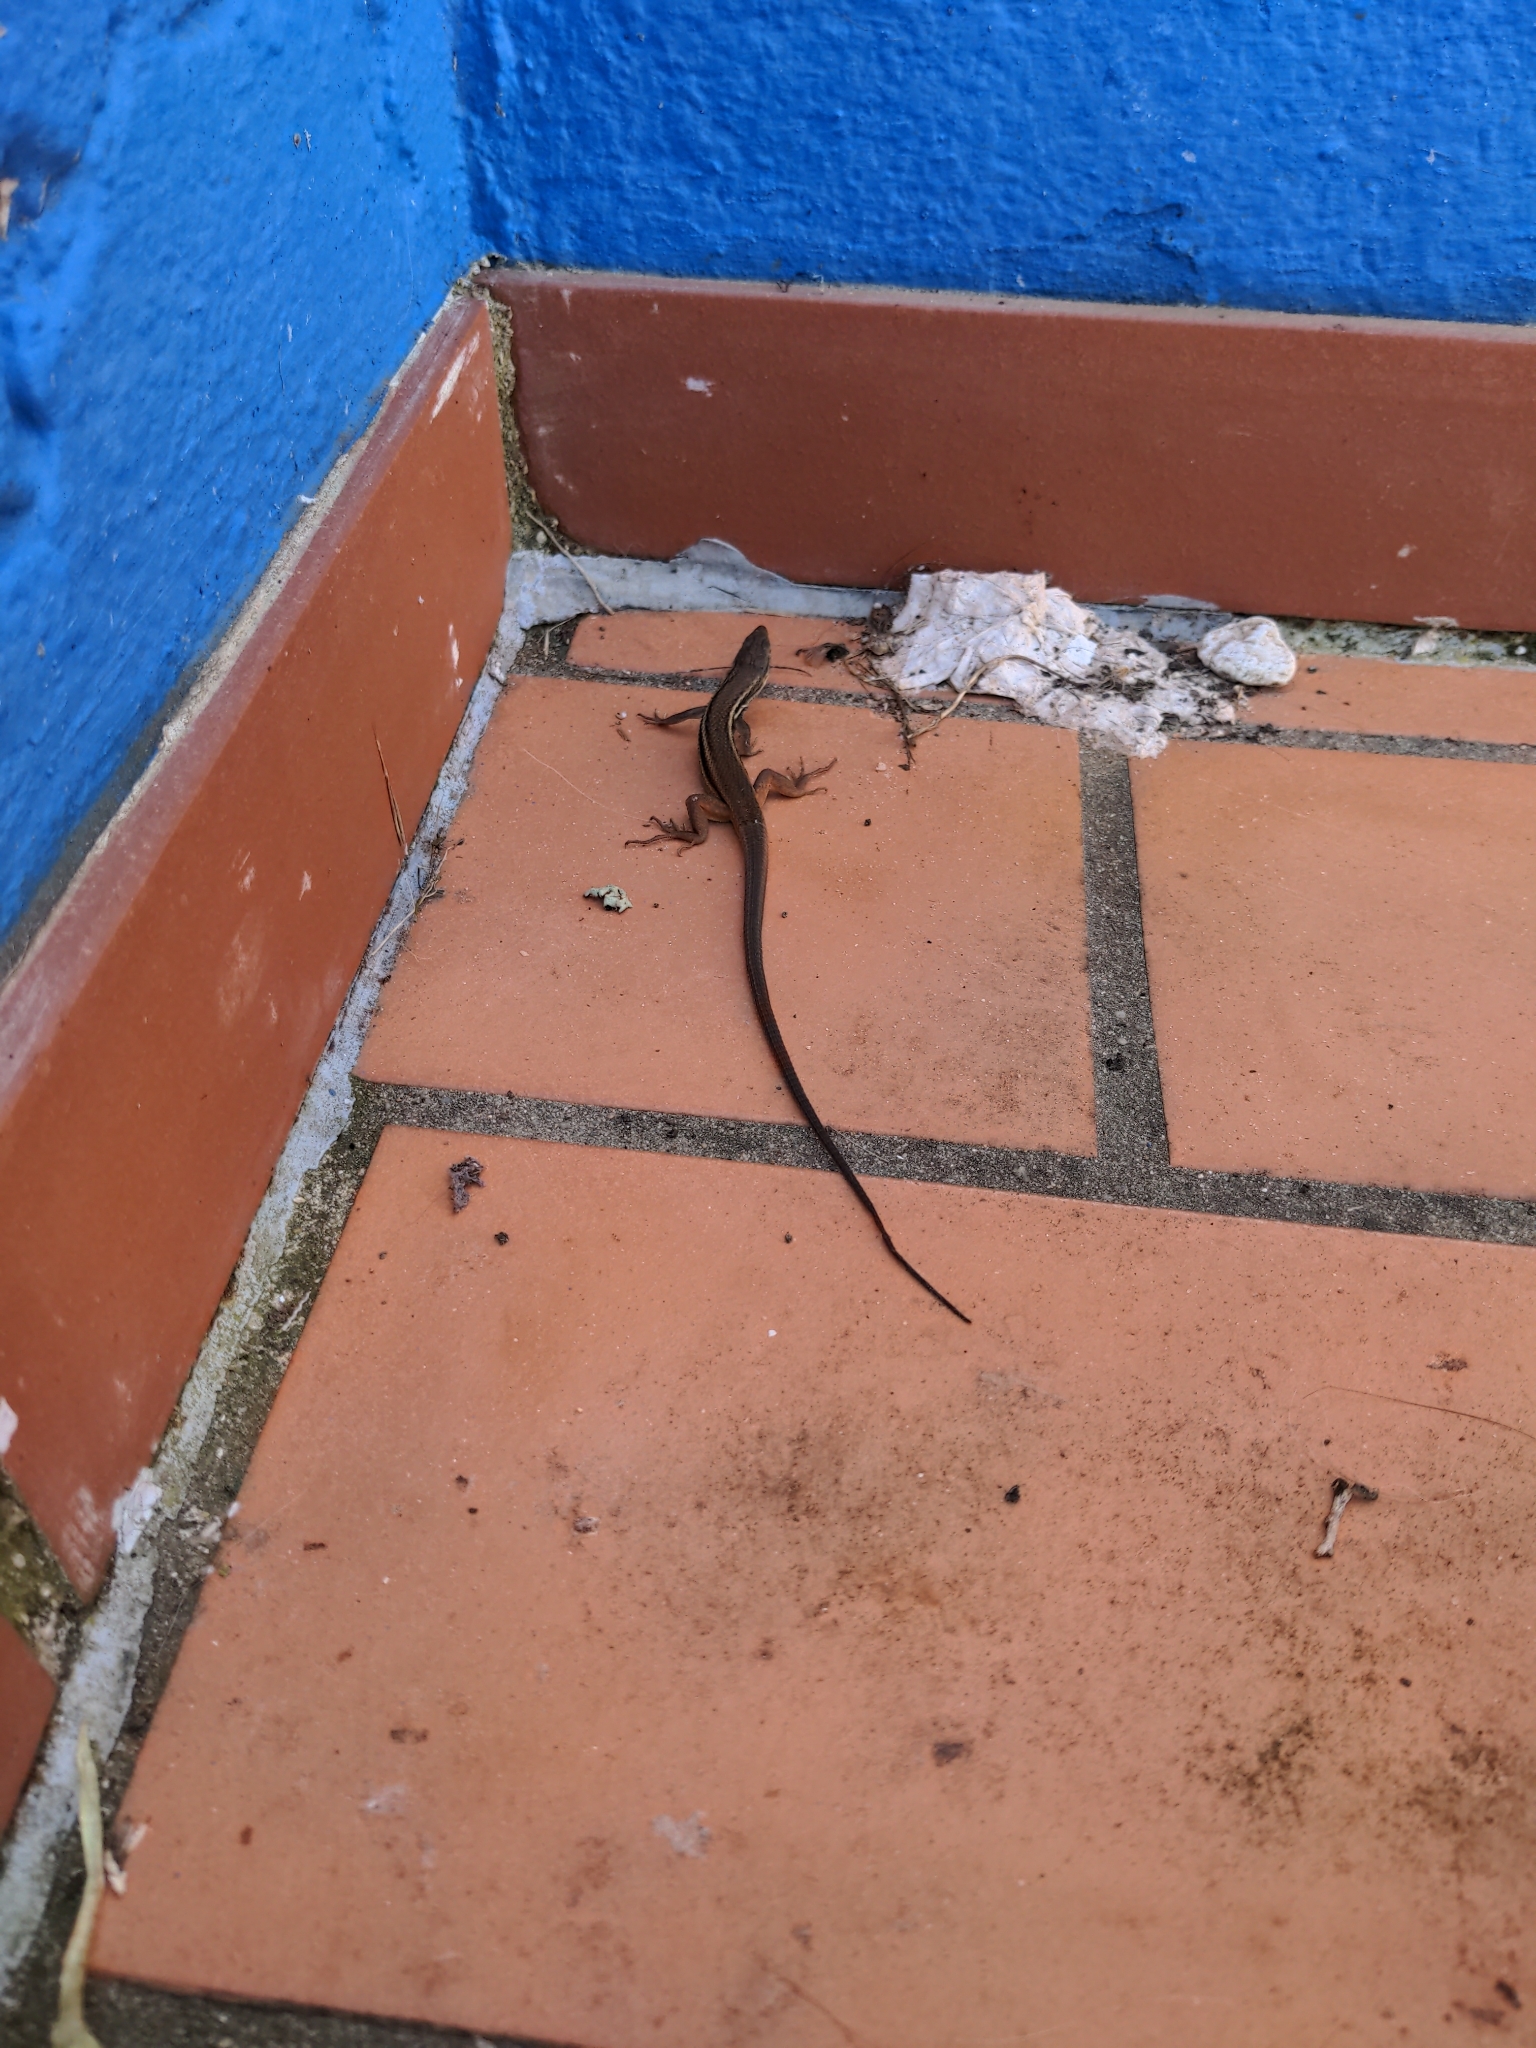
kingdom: Animalia
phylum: Chordata
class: Squamata
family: Lacertidae
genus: Psammodromus
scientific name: Psammodromus algirus
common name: Algerian psammodromus
